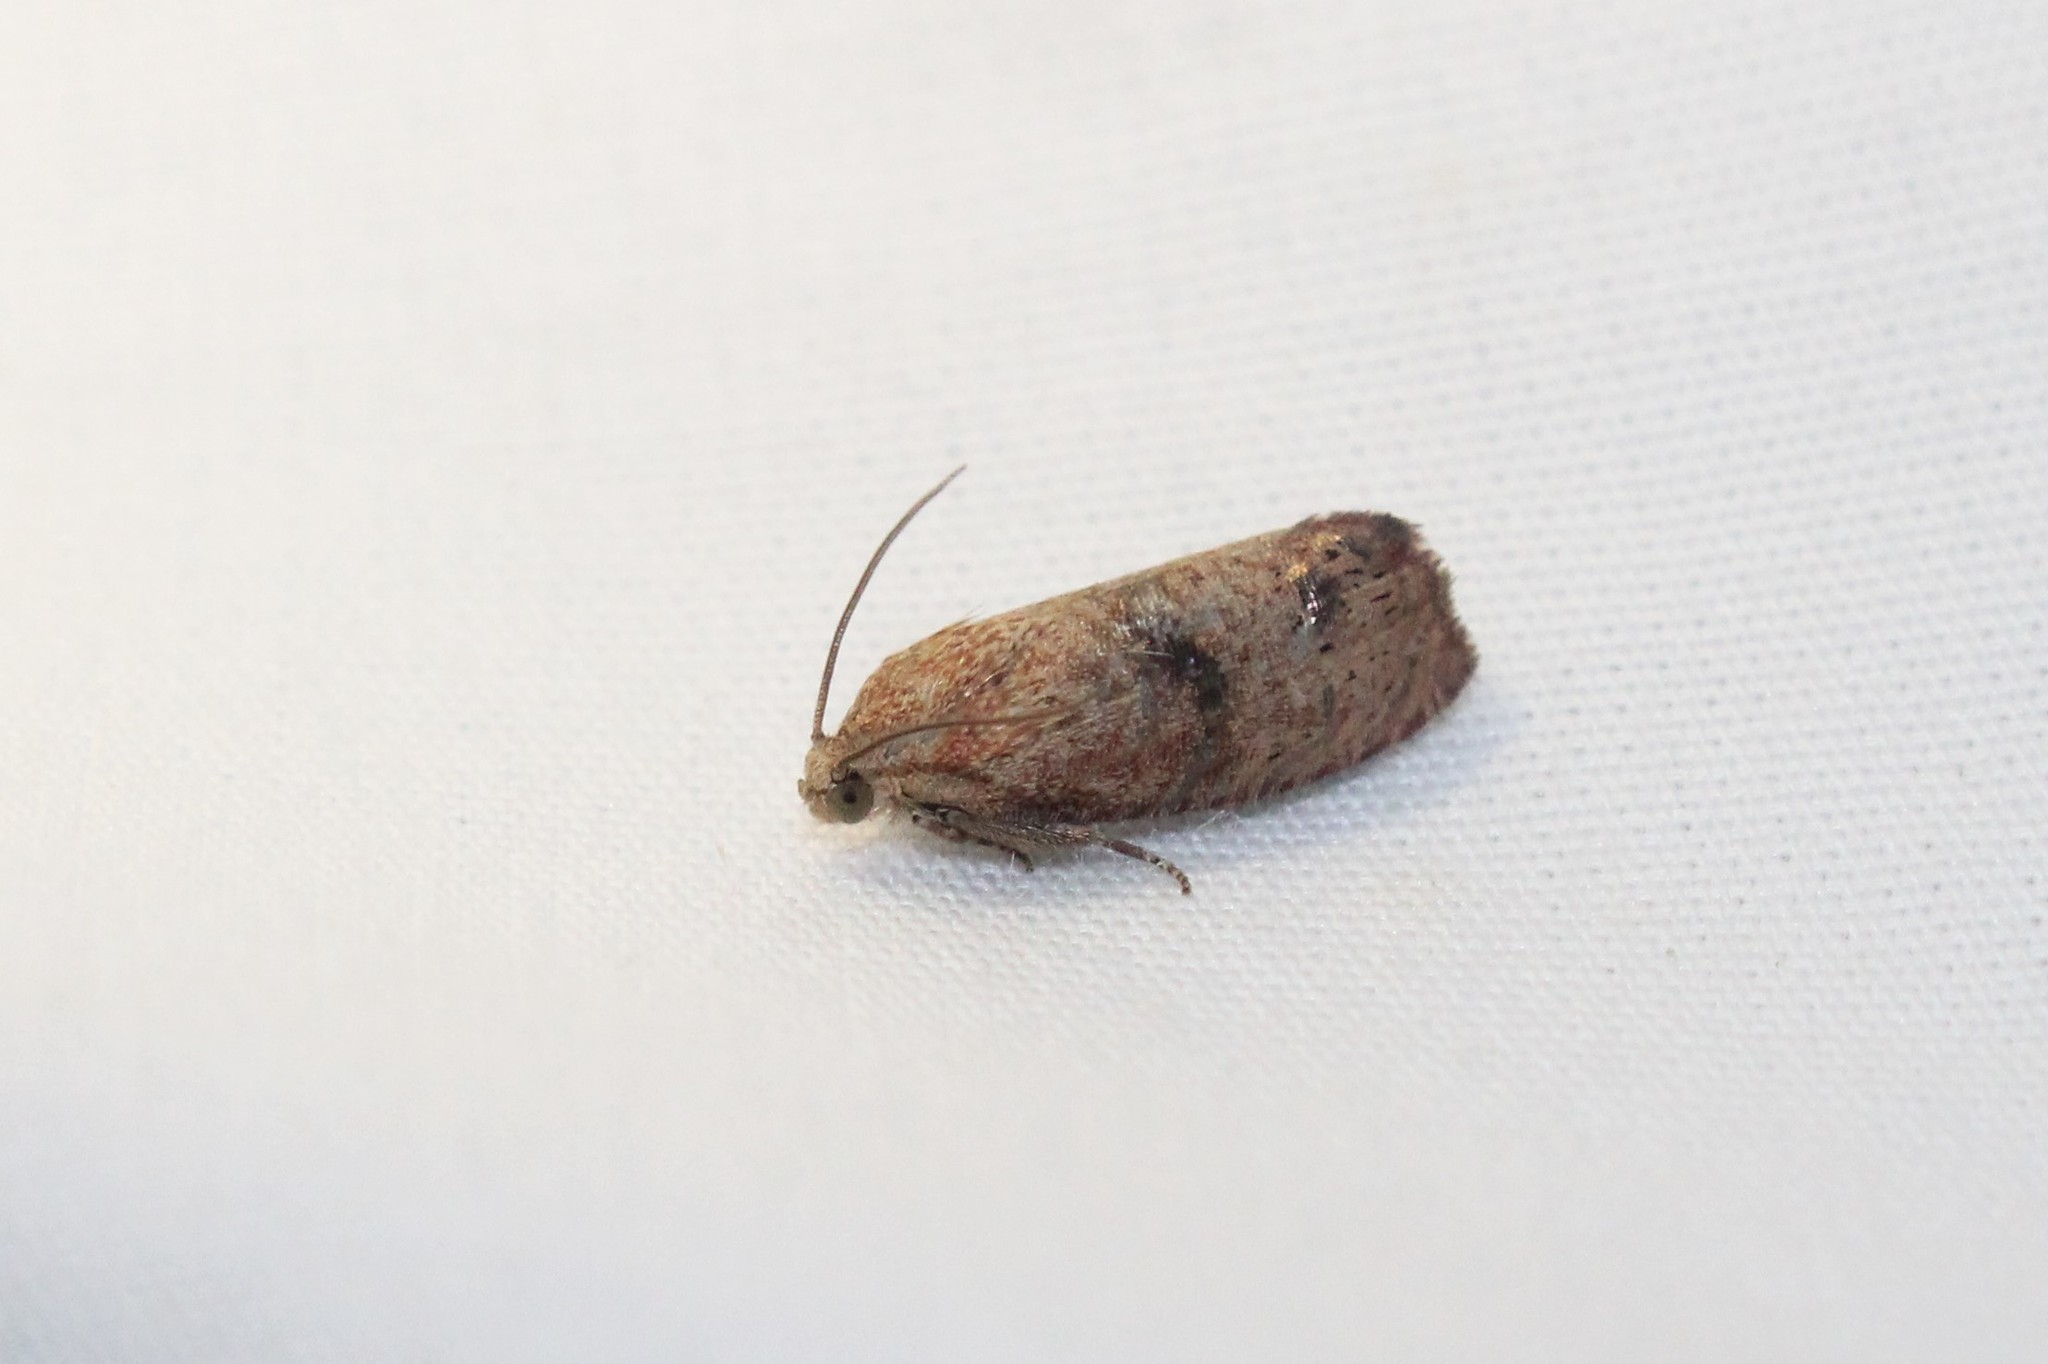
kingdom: Animalia
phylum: Arthropoda
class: Insecta
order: Lepidoptera
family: Tortricidae
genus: Cydia
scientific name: Cydia latiferreana
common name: Filbertworm moth
